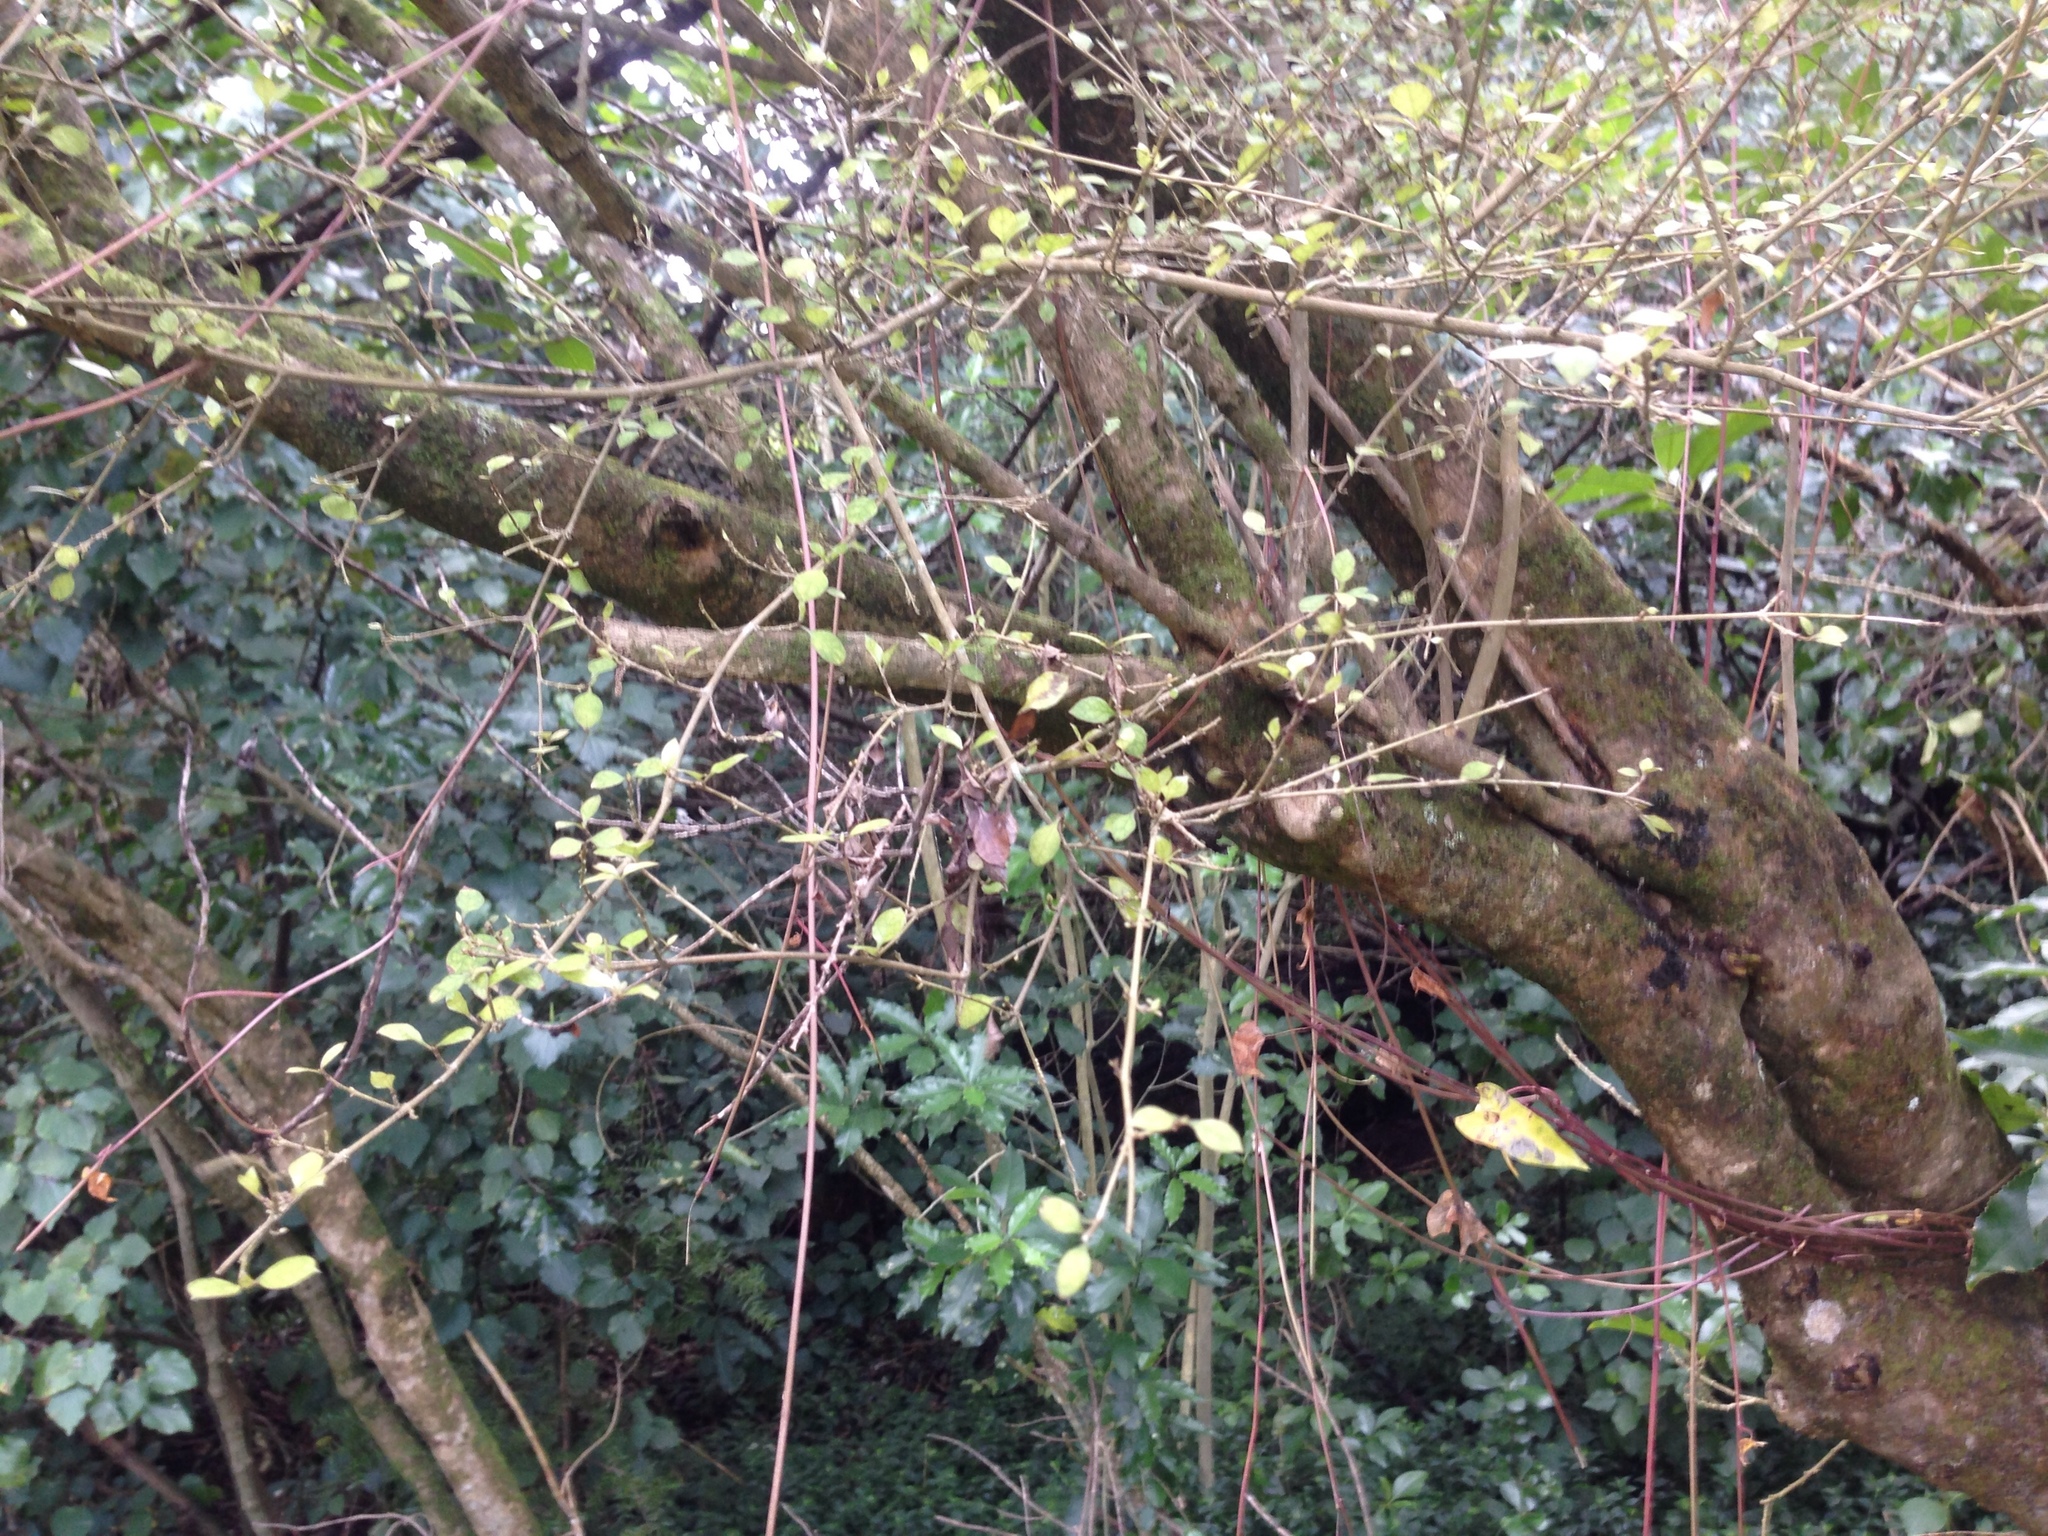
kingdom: Plantae
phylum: Tracheophyta
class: Magnoliopsida
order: Gentianales
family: Rubiaceae
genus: Coprosma
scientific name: Coprosma areolata
